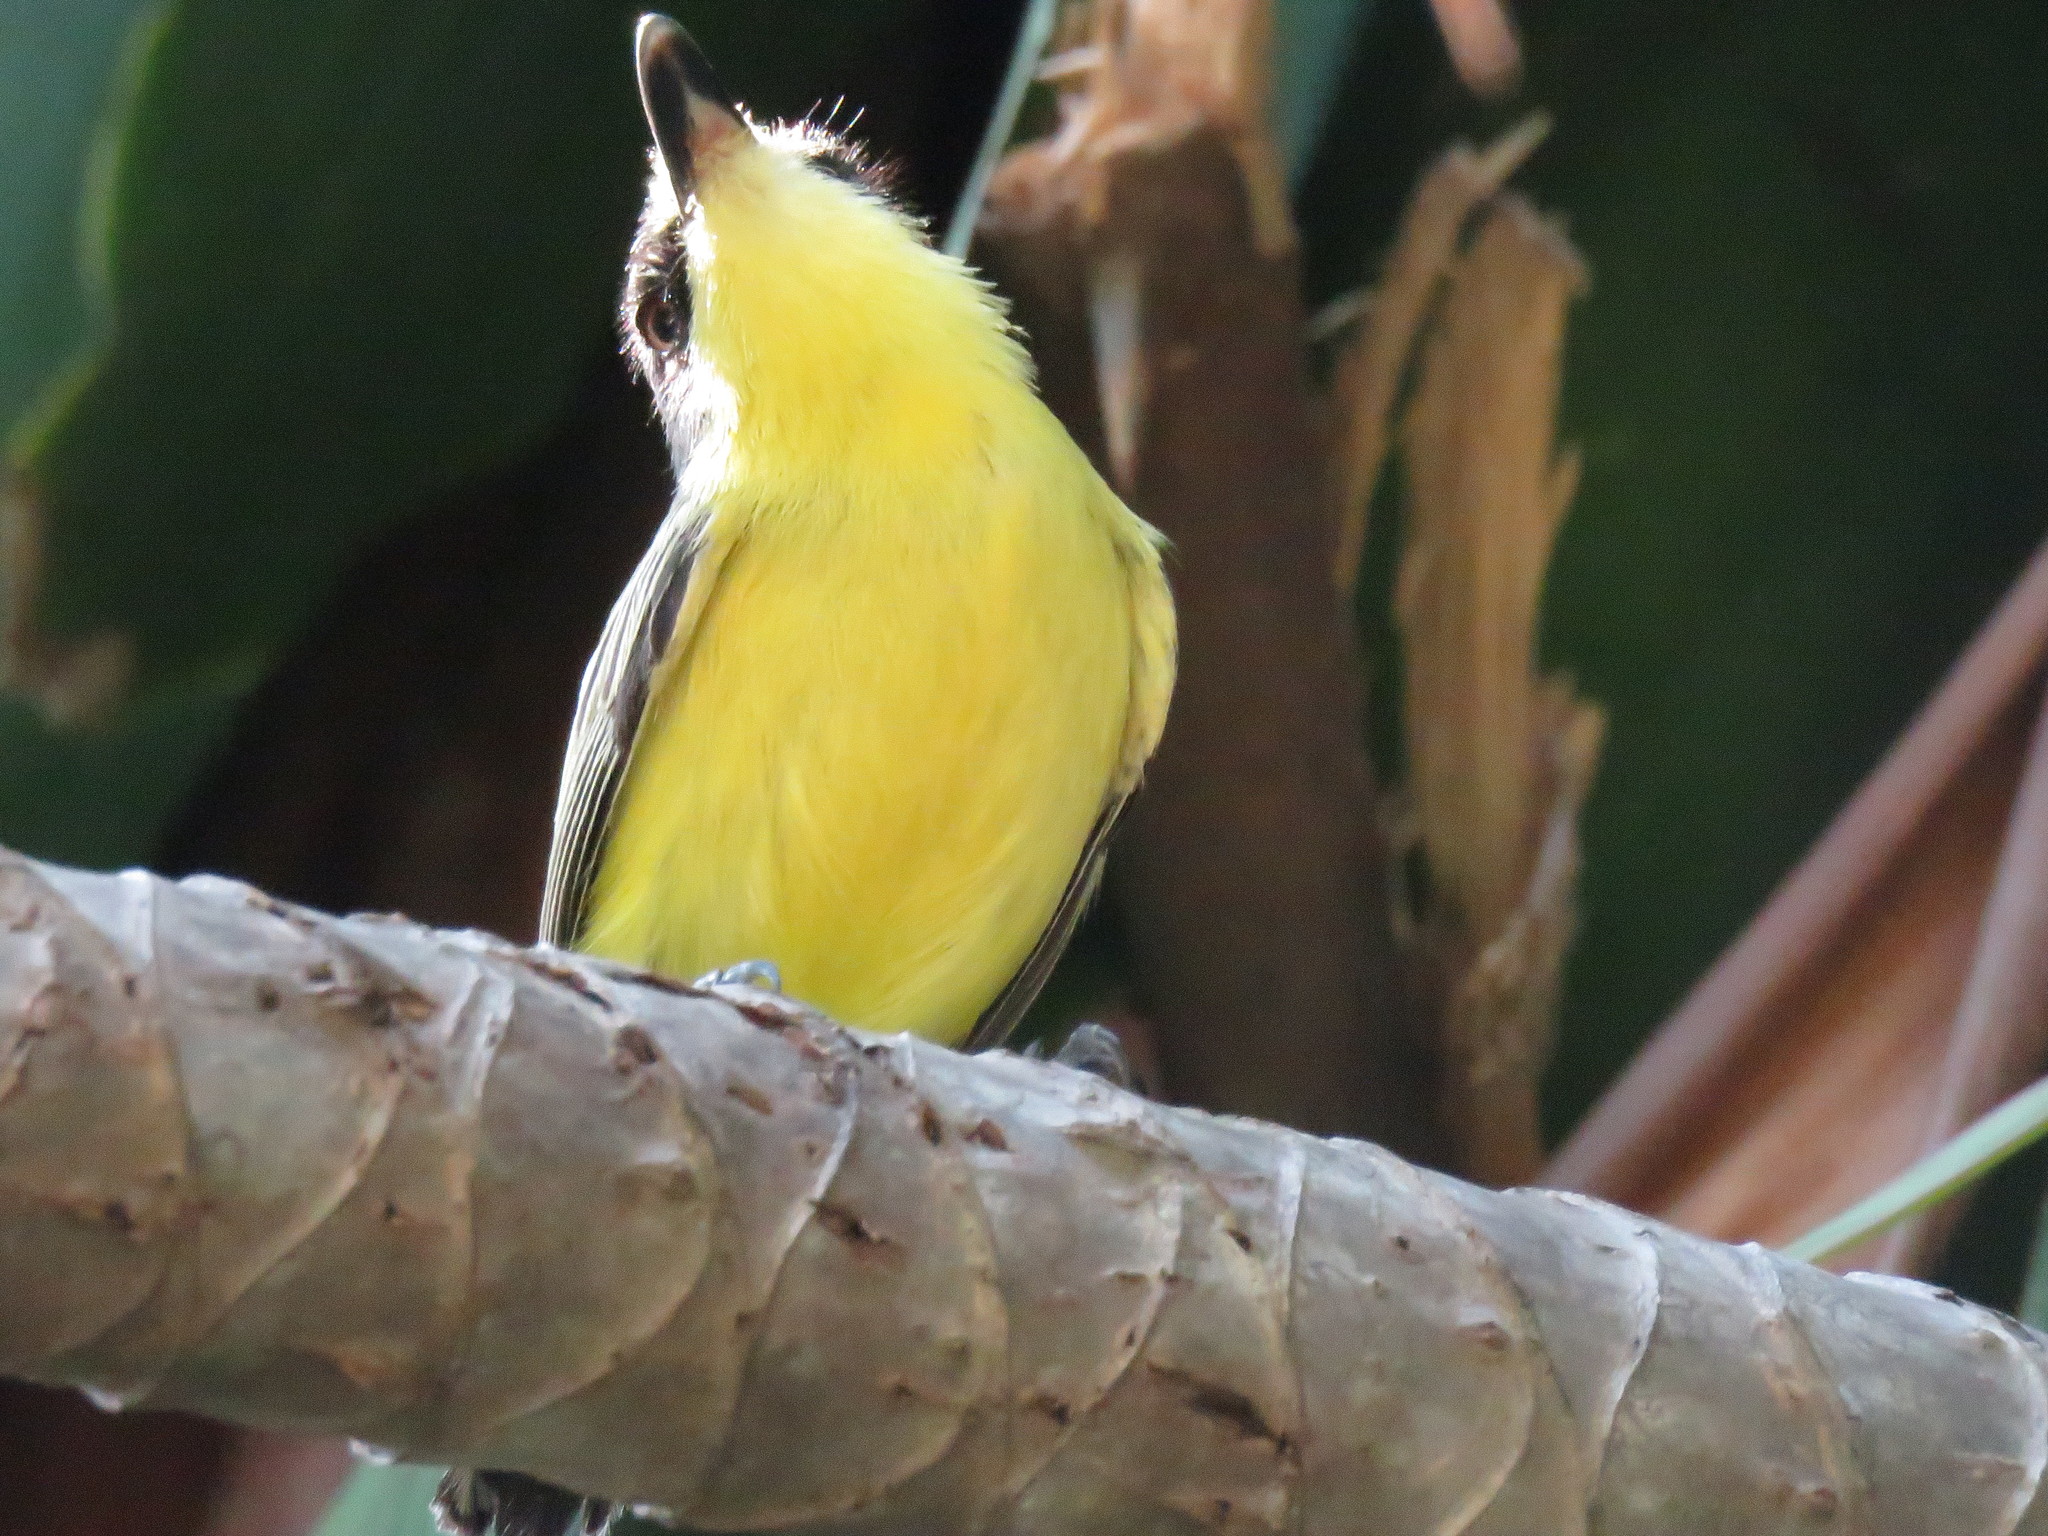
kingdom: Animalia
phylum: Chordata
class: Aves
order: Passeriformes
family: Tyrannidae
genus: Todirostrum
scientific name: Todirostrum cinereum
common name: Common tody-flycatcher
